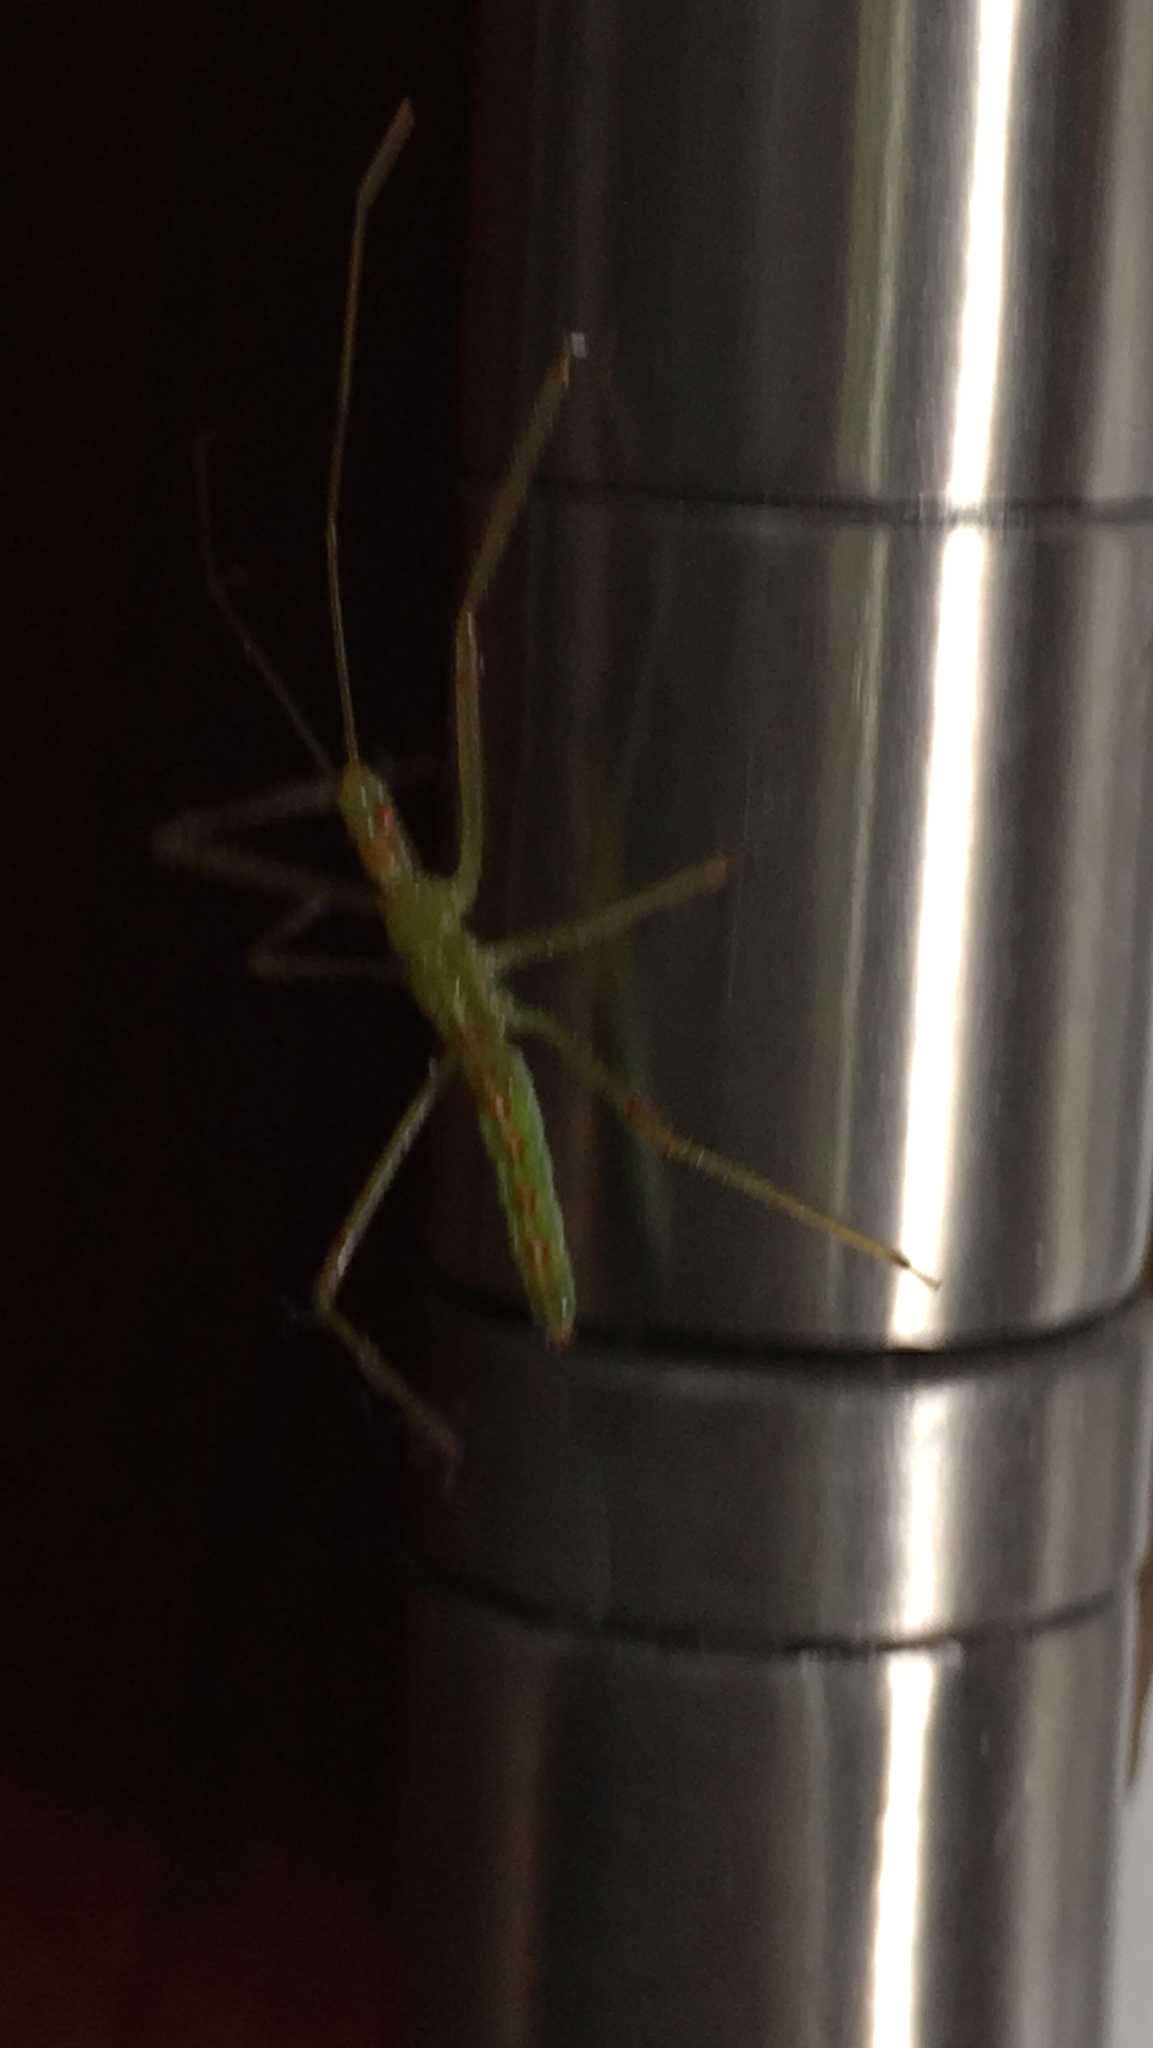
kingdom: Animalia
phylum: Arthropoda
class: Insecta
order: Hemiptera
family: Reduviidae
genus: Zelus
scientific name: Zelus luridus
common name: Pale green assassin bug
